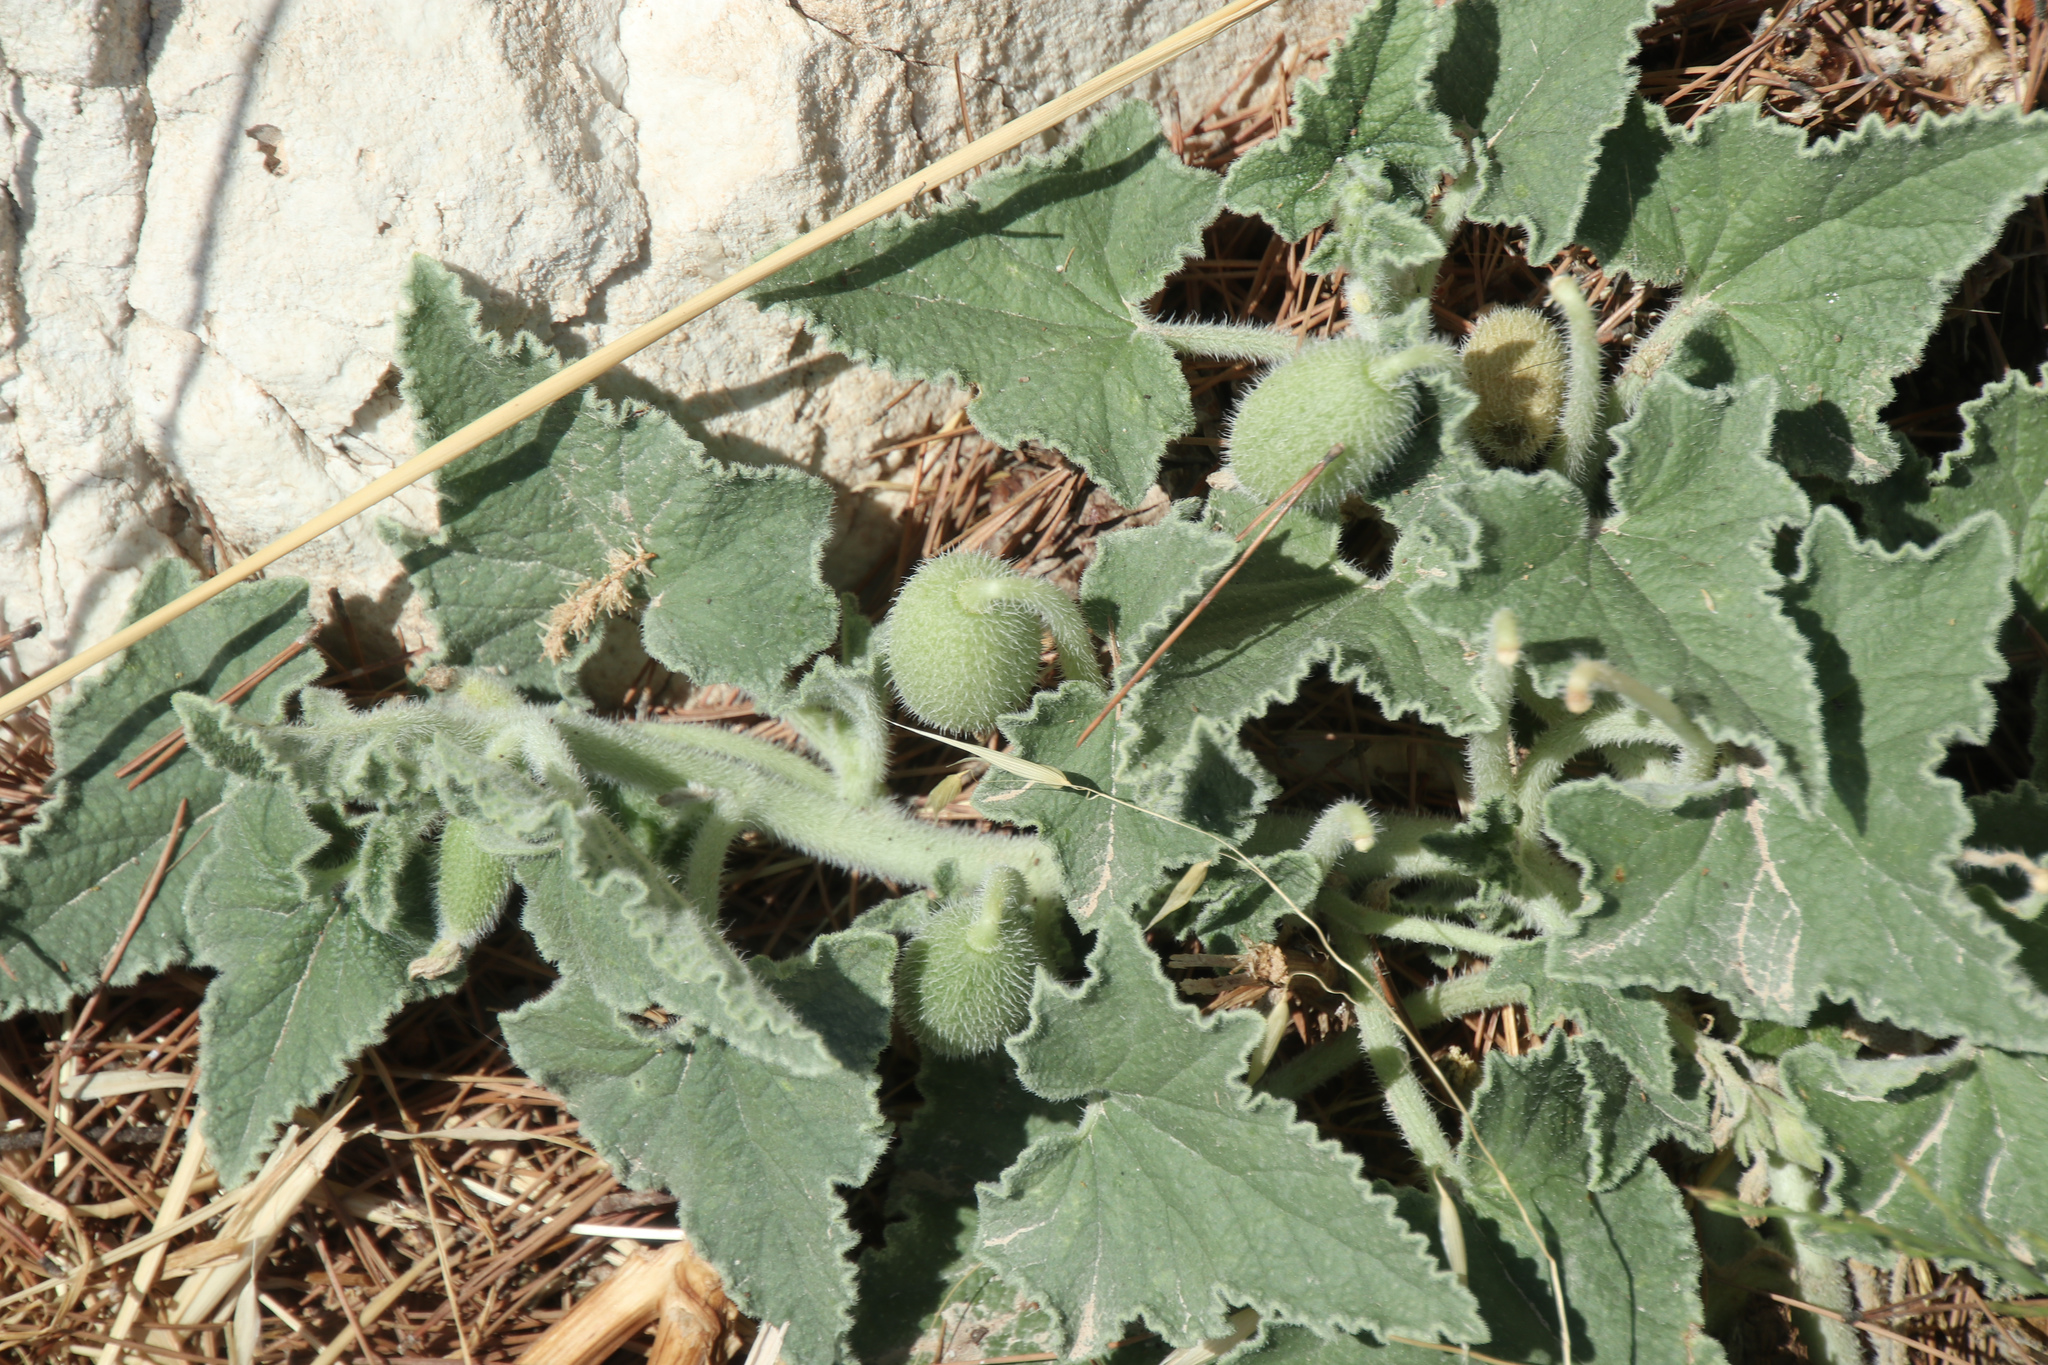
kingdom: Plantae
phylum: Tracheophyta
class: Magnoliopsida
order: Cucurbitales
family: Cucurbitaceae
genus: Ecballium
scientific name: Ecballium elaterium
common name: Squirting cucumber
